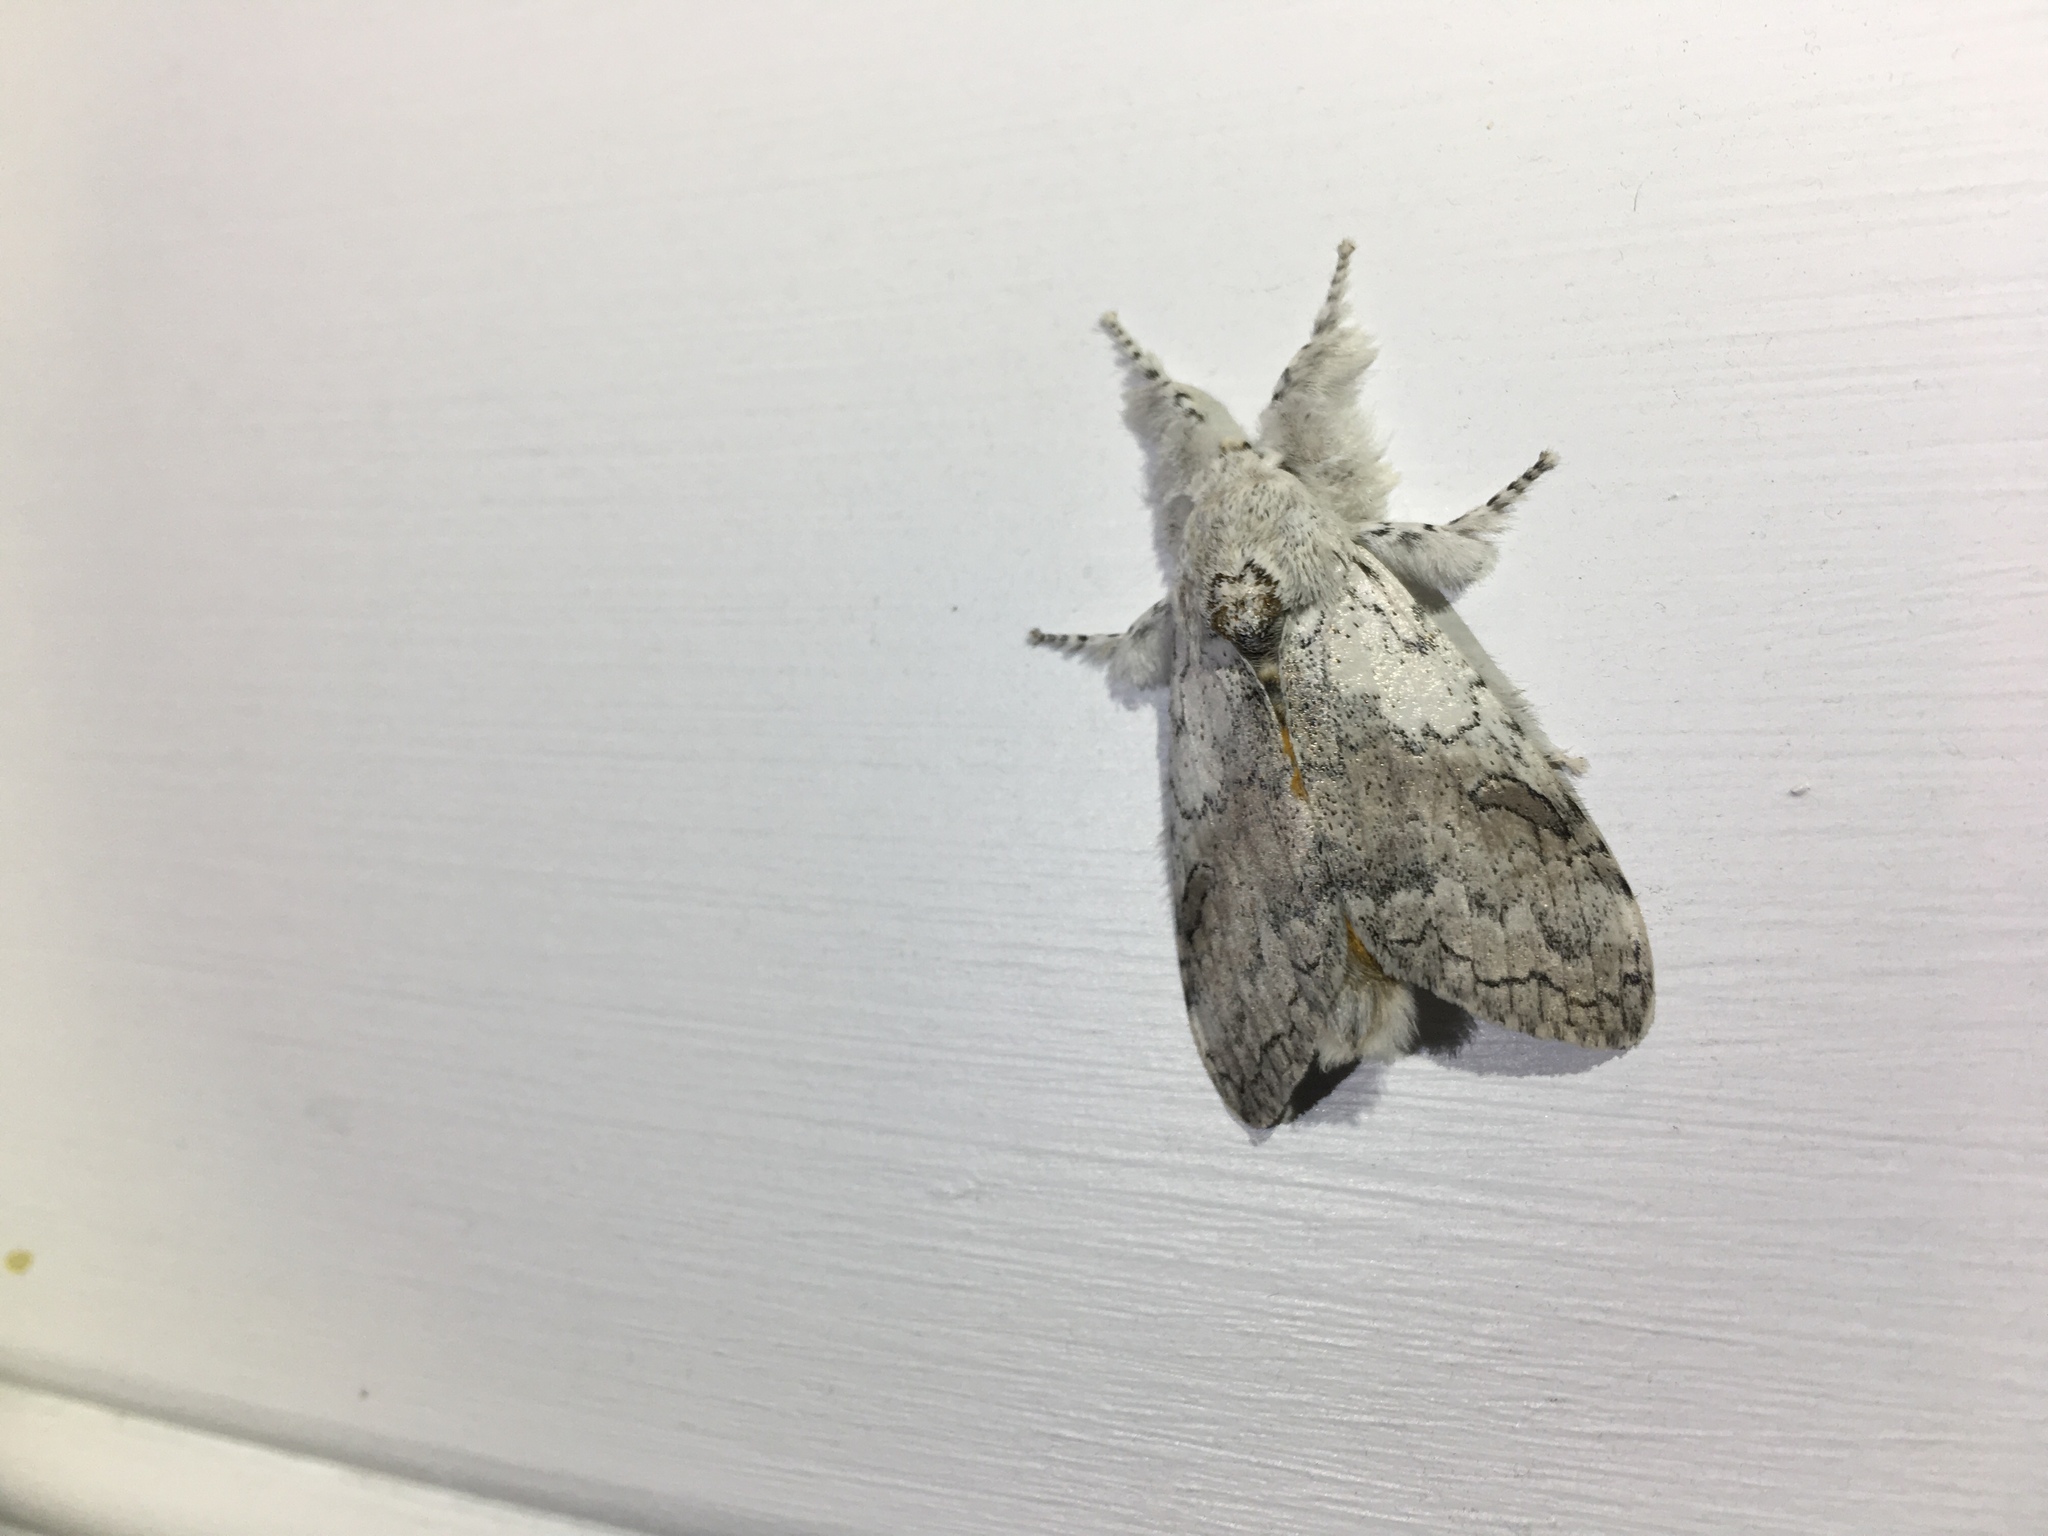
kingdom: Animalia
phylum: Arthropoda
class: Insecta
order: Lepidoptera
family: Erebidae
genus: Calliteara
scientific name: Calliteara farenoides
